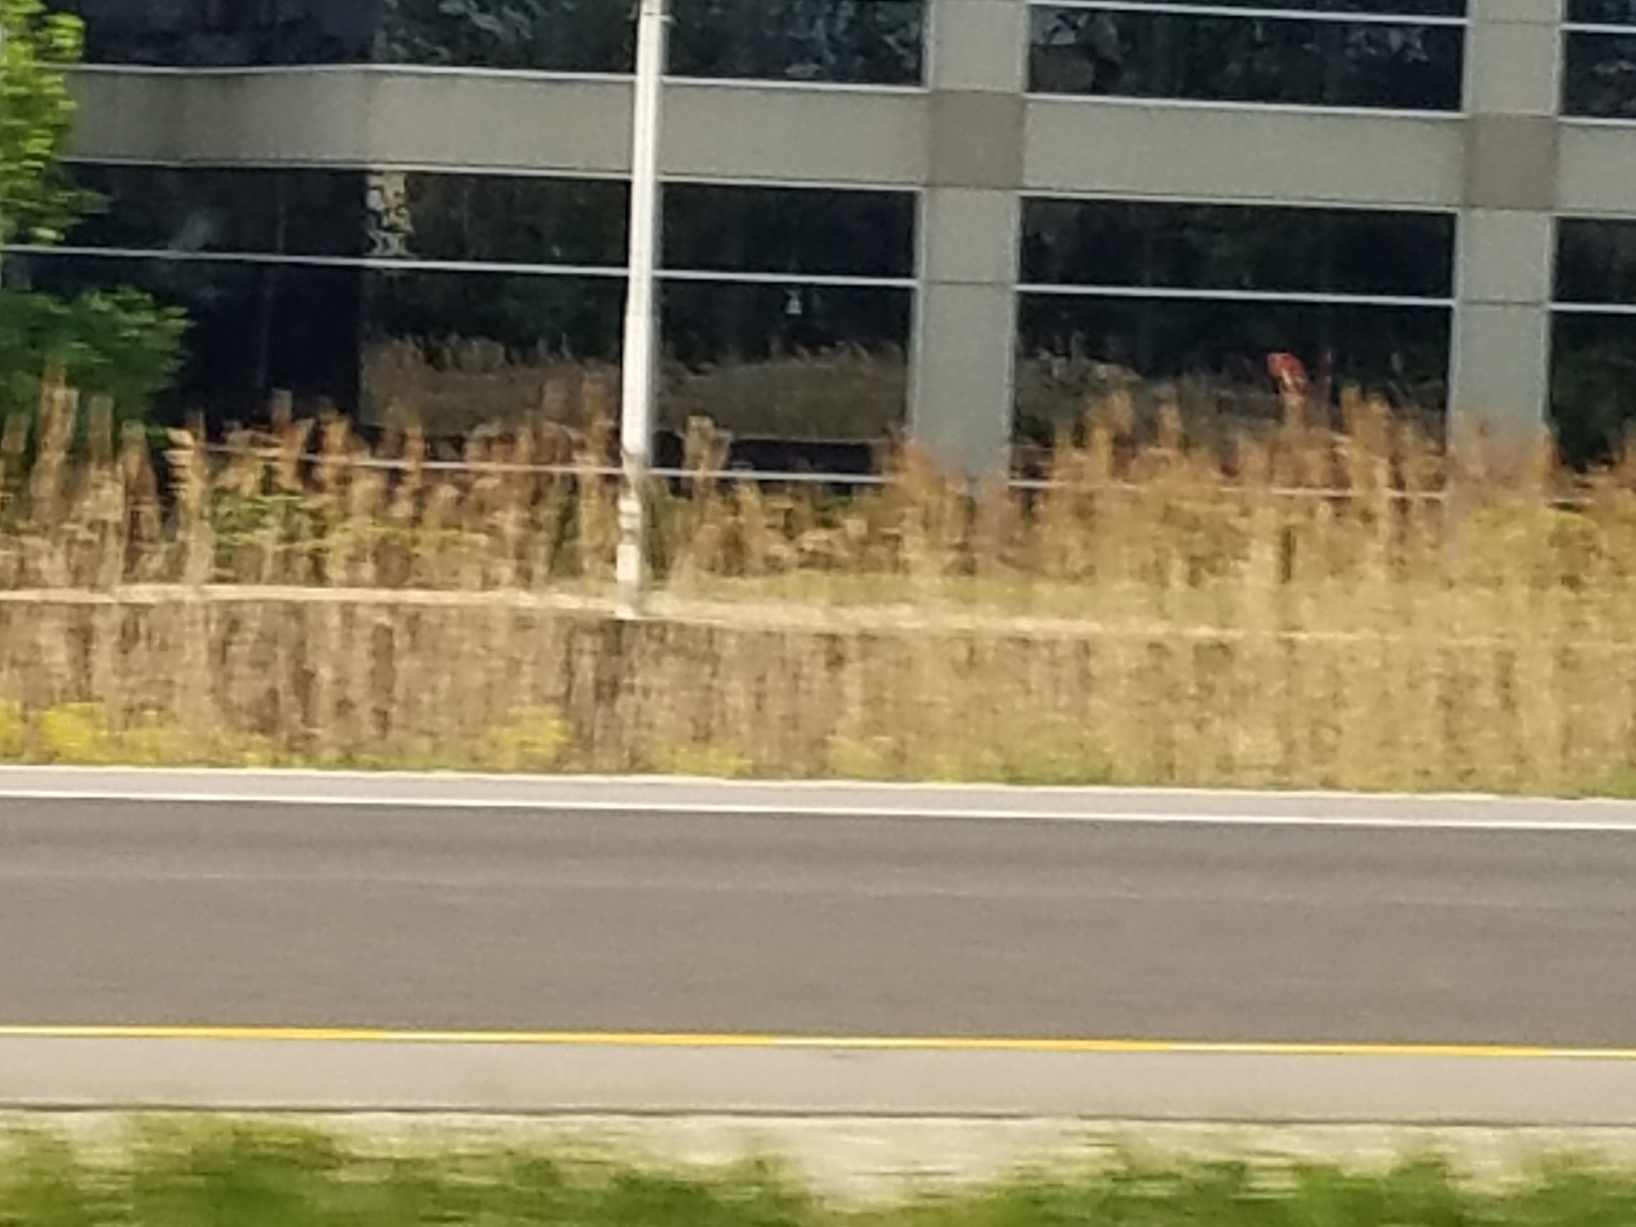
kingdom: Plantae
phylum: Tracheophyta
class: Liliopsida
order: Poales
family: Poaceae
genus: Phragmites
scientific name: Phragmites australis
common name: Common reed
